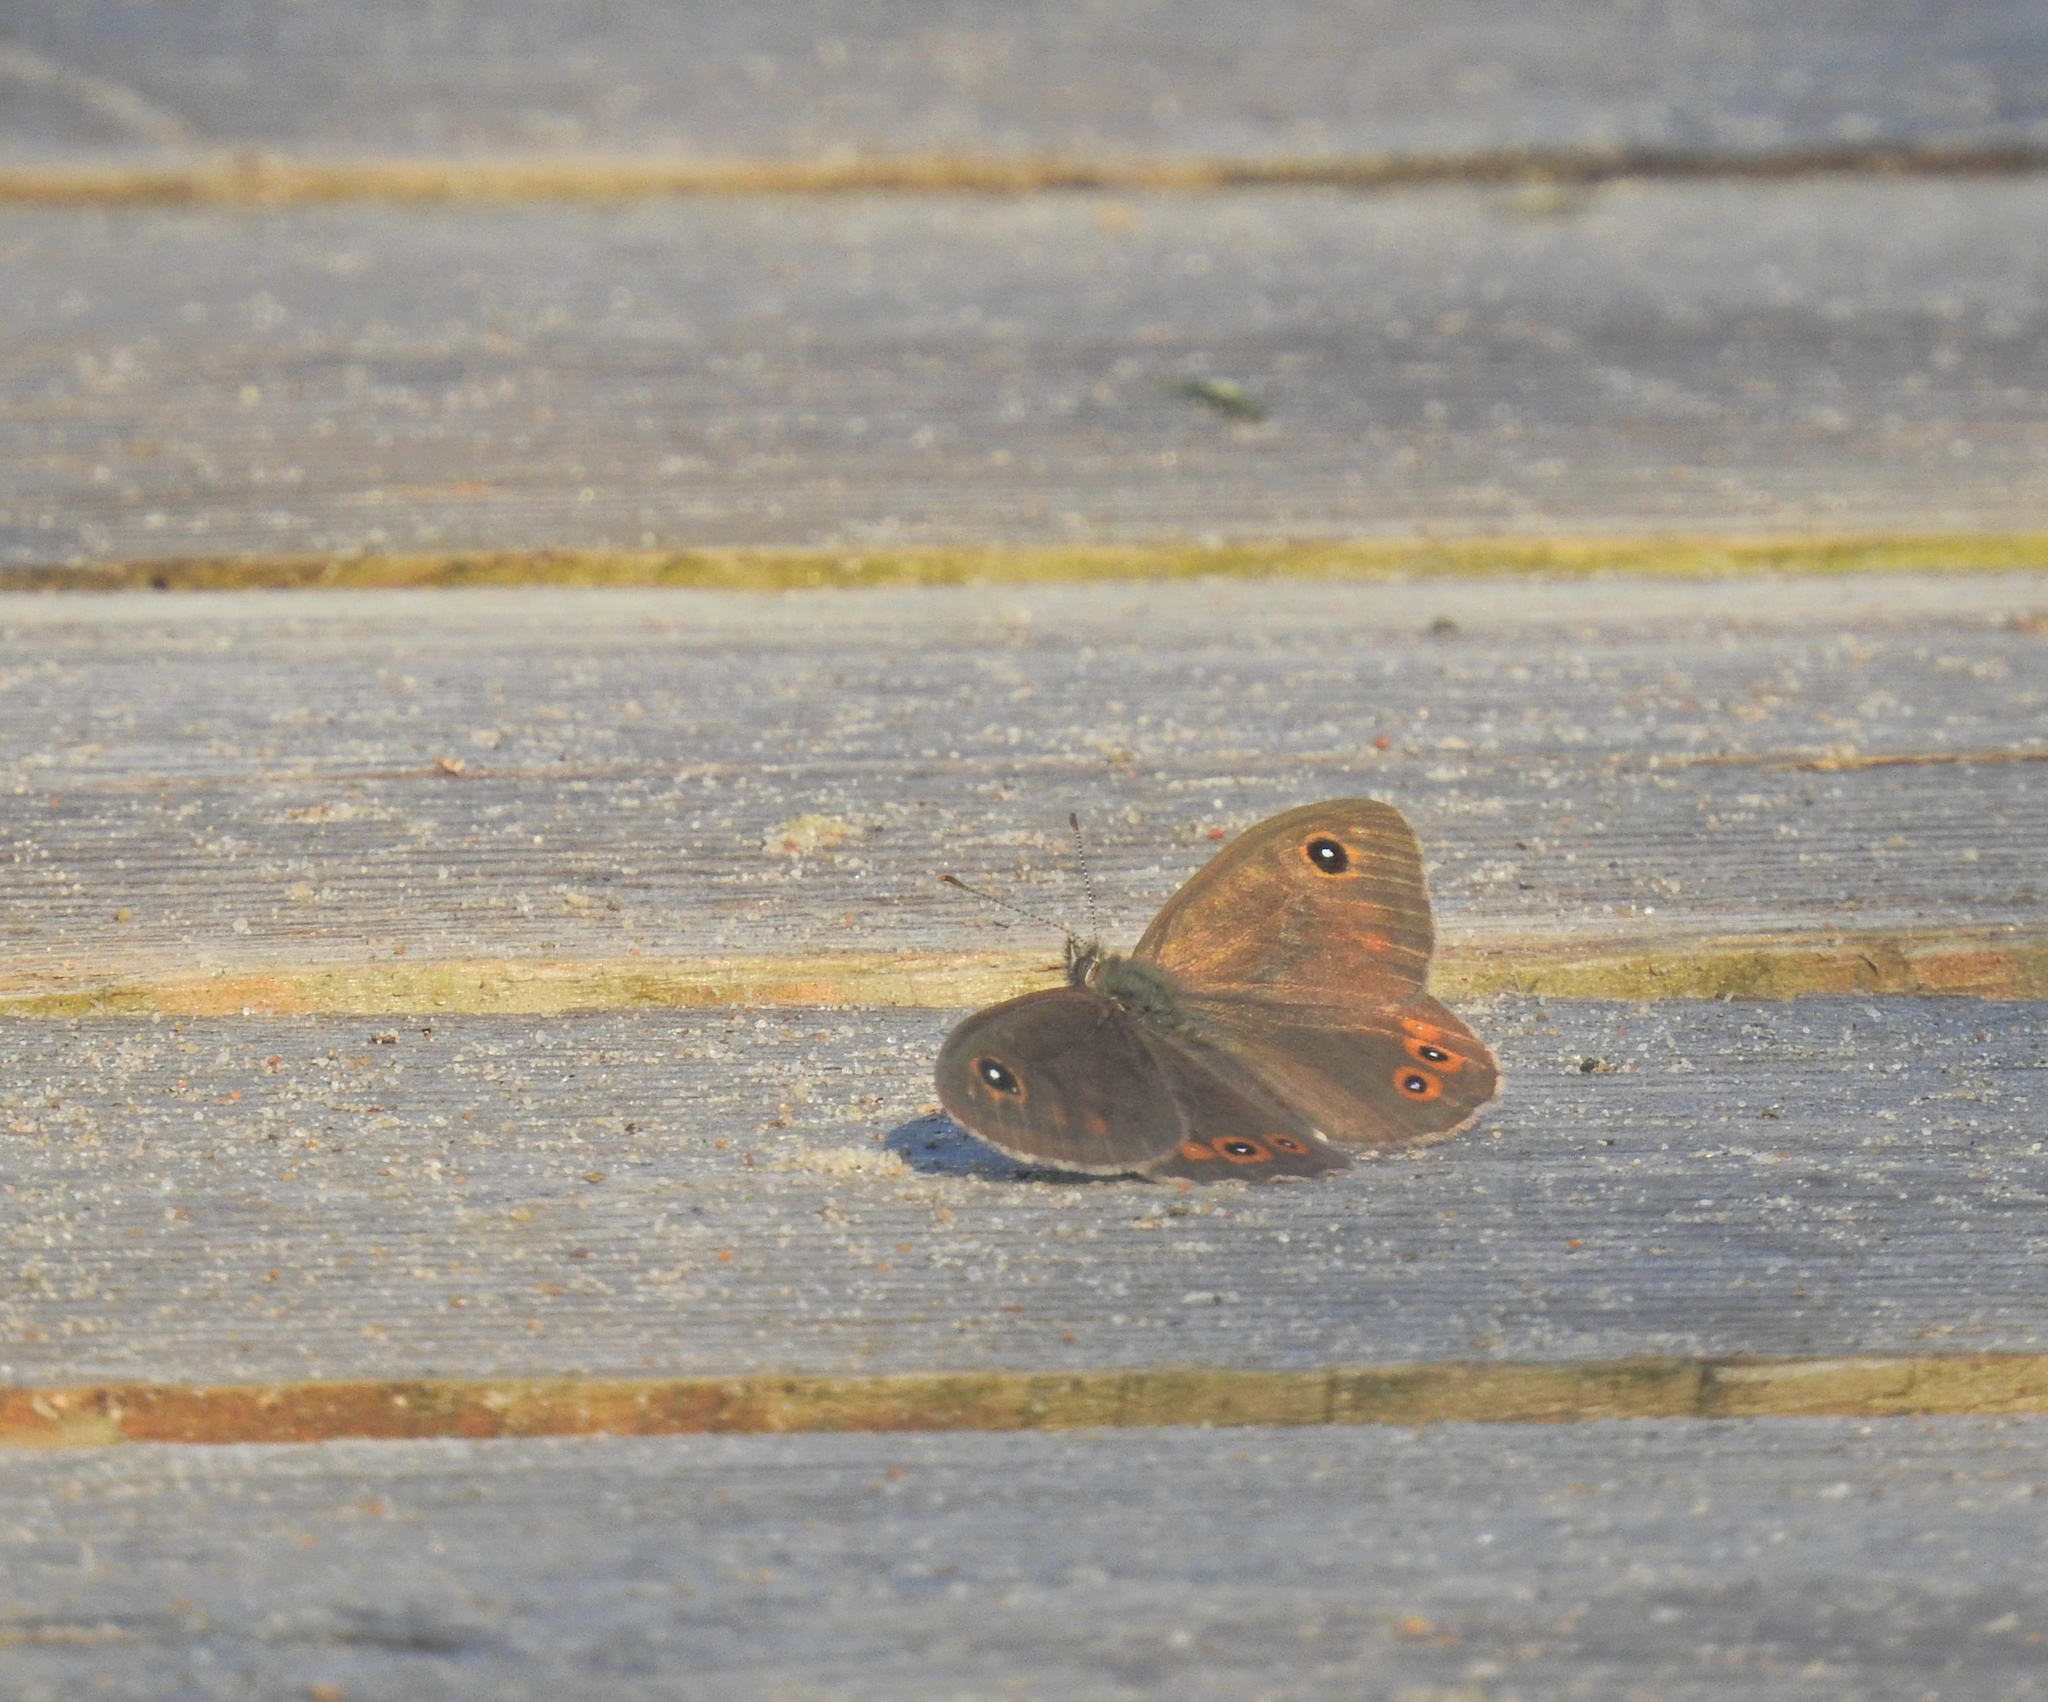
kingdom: Animalia
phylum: Arthropoda
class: Insecta
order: Lepidoptera
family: Nymphalidae
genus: Pararge
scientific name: Pararge Lasiommata maera
